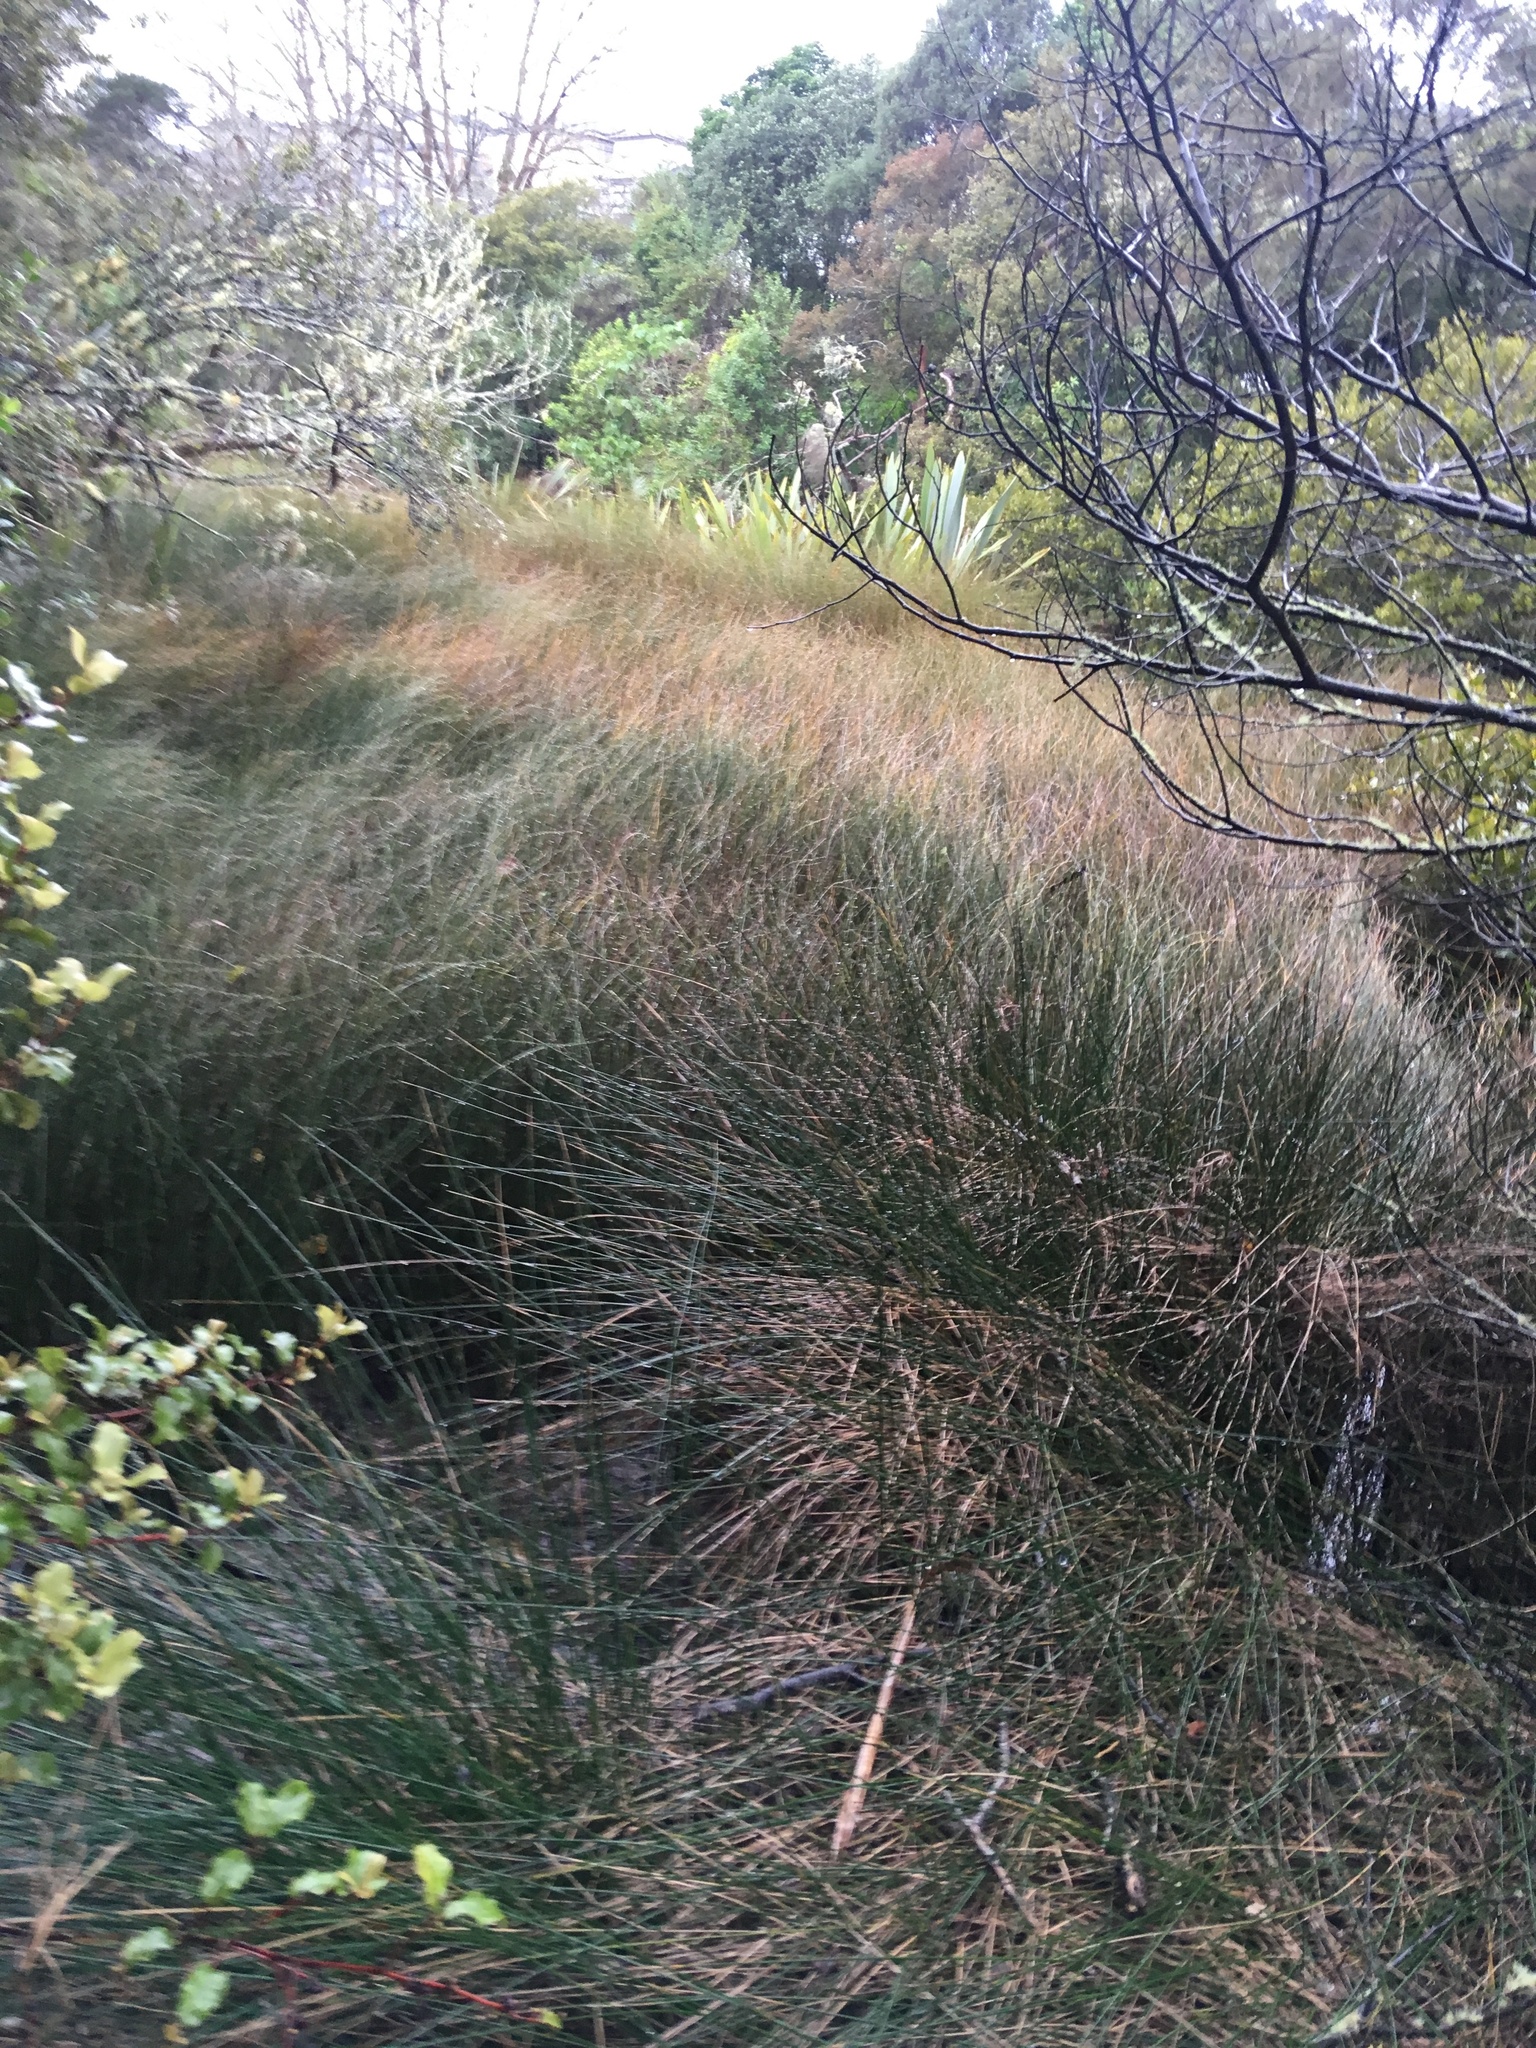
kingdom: Plantae
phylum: Tracheophyta
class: Liliopsida
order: Poales
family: Restionaceae
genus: Apodasmia
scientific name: Apodasmia similis
